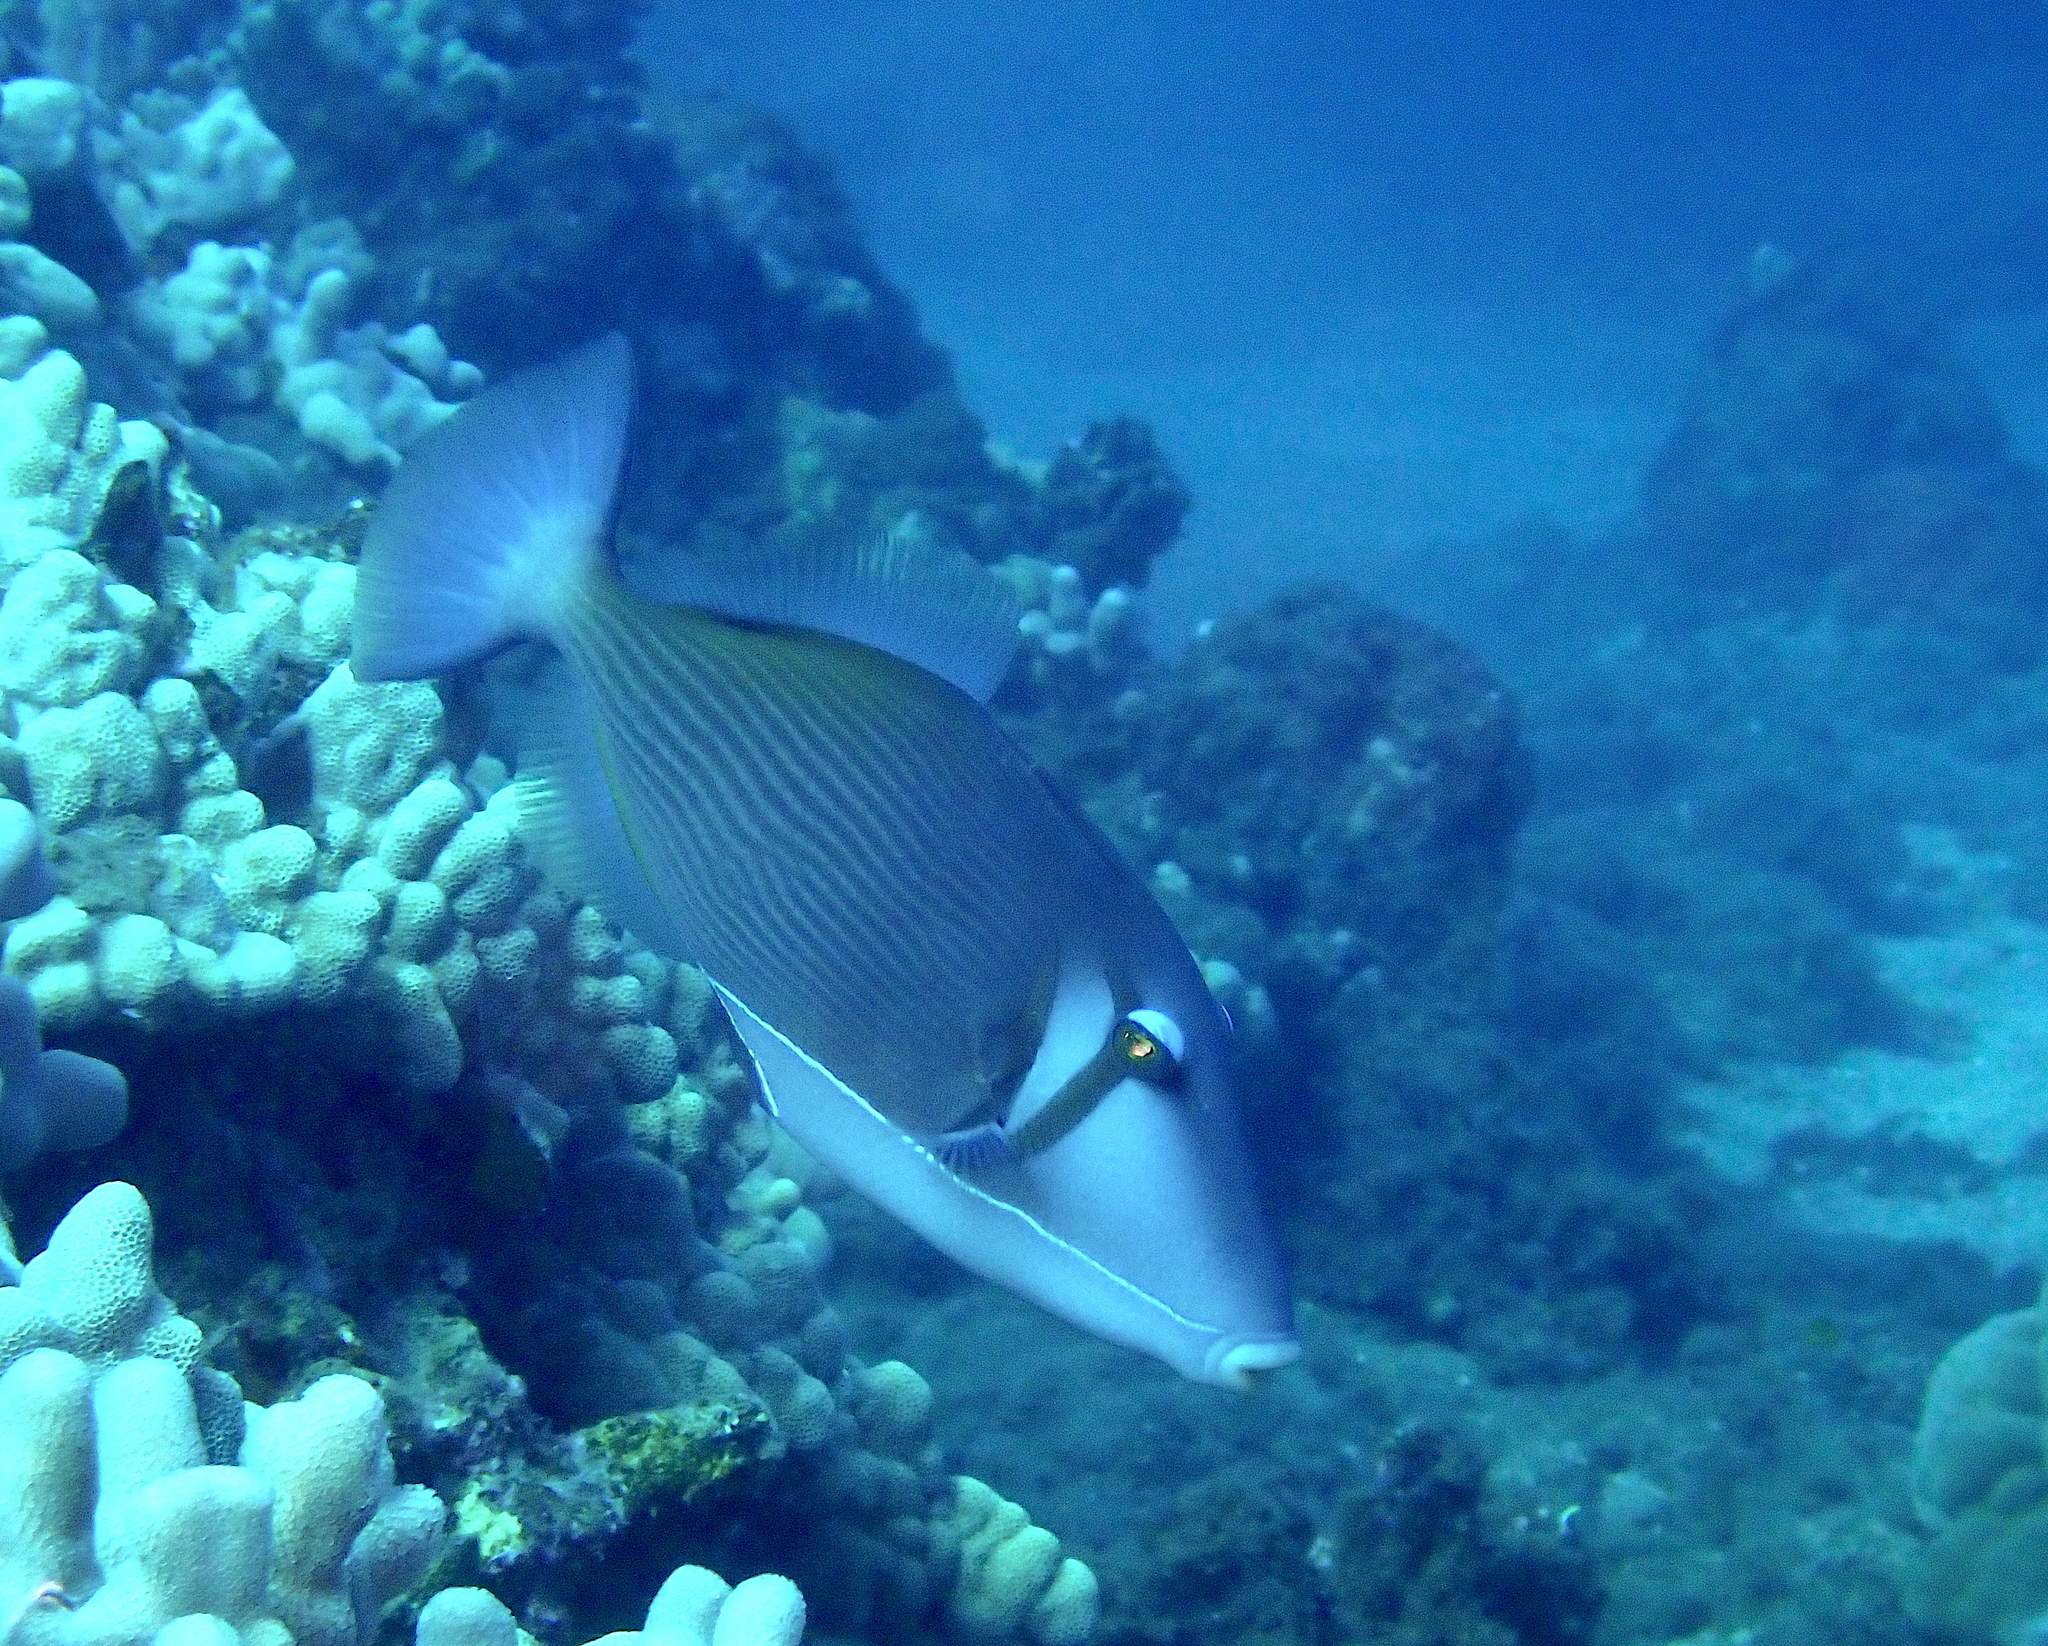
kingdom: Animalia
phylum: Chordata
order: Tetraodontiformes
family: Balistidae
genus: Sufflamen
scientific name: Sufflamen bursa
